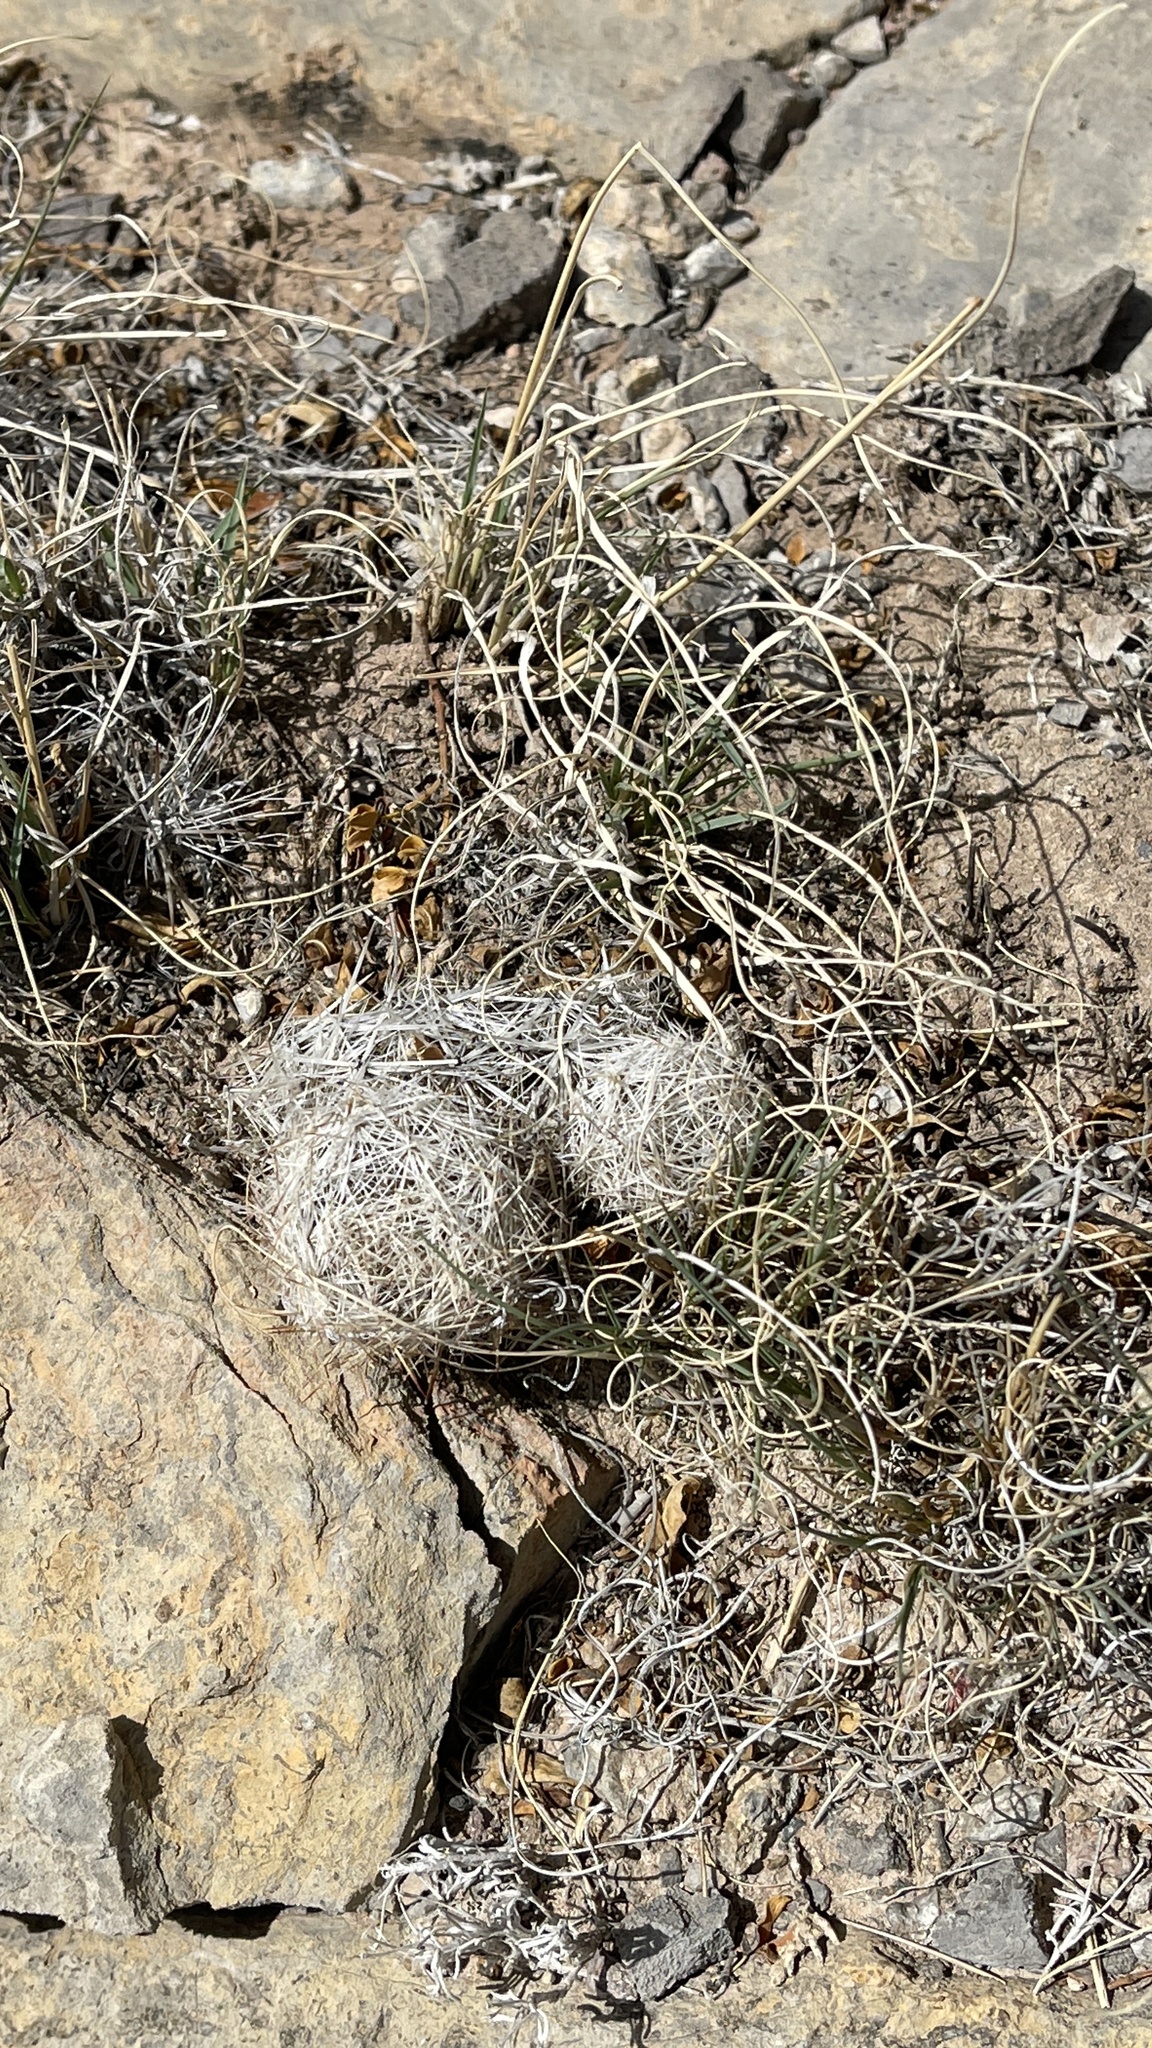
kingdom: Plantae
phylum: Tracheophyta
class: Magnoliopsida
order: Caryophyllales
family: Cactaceae
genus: Pelecyphora
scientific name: Pelecyphora vivipara
